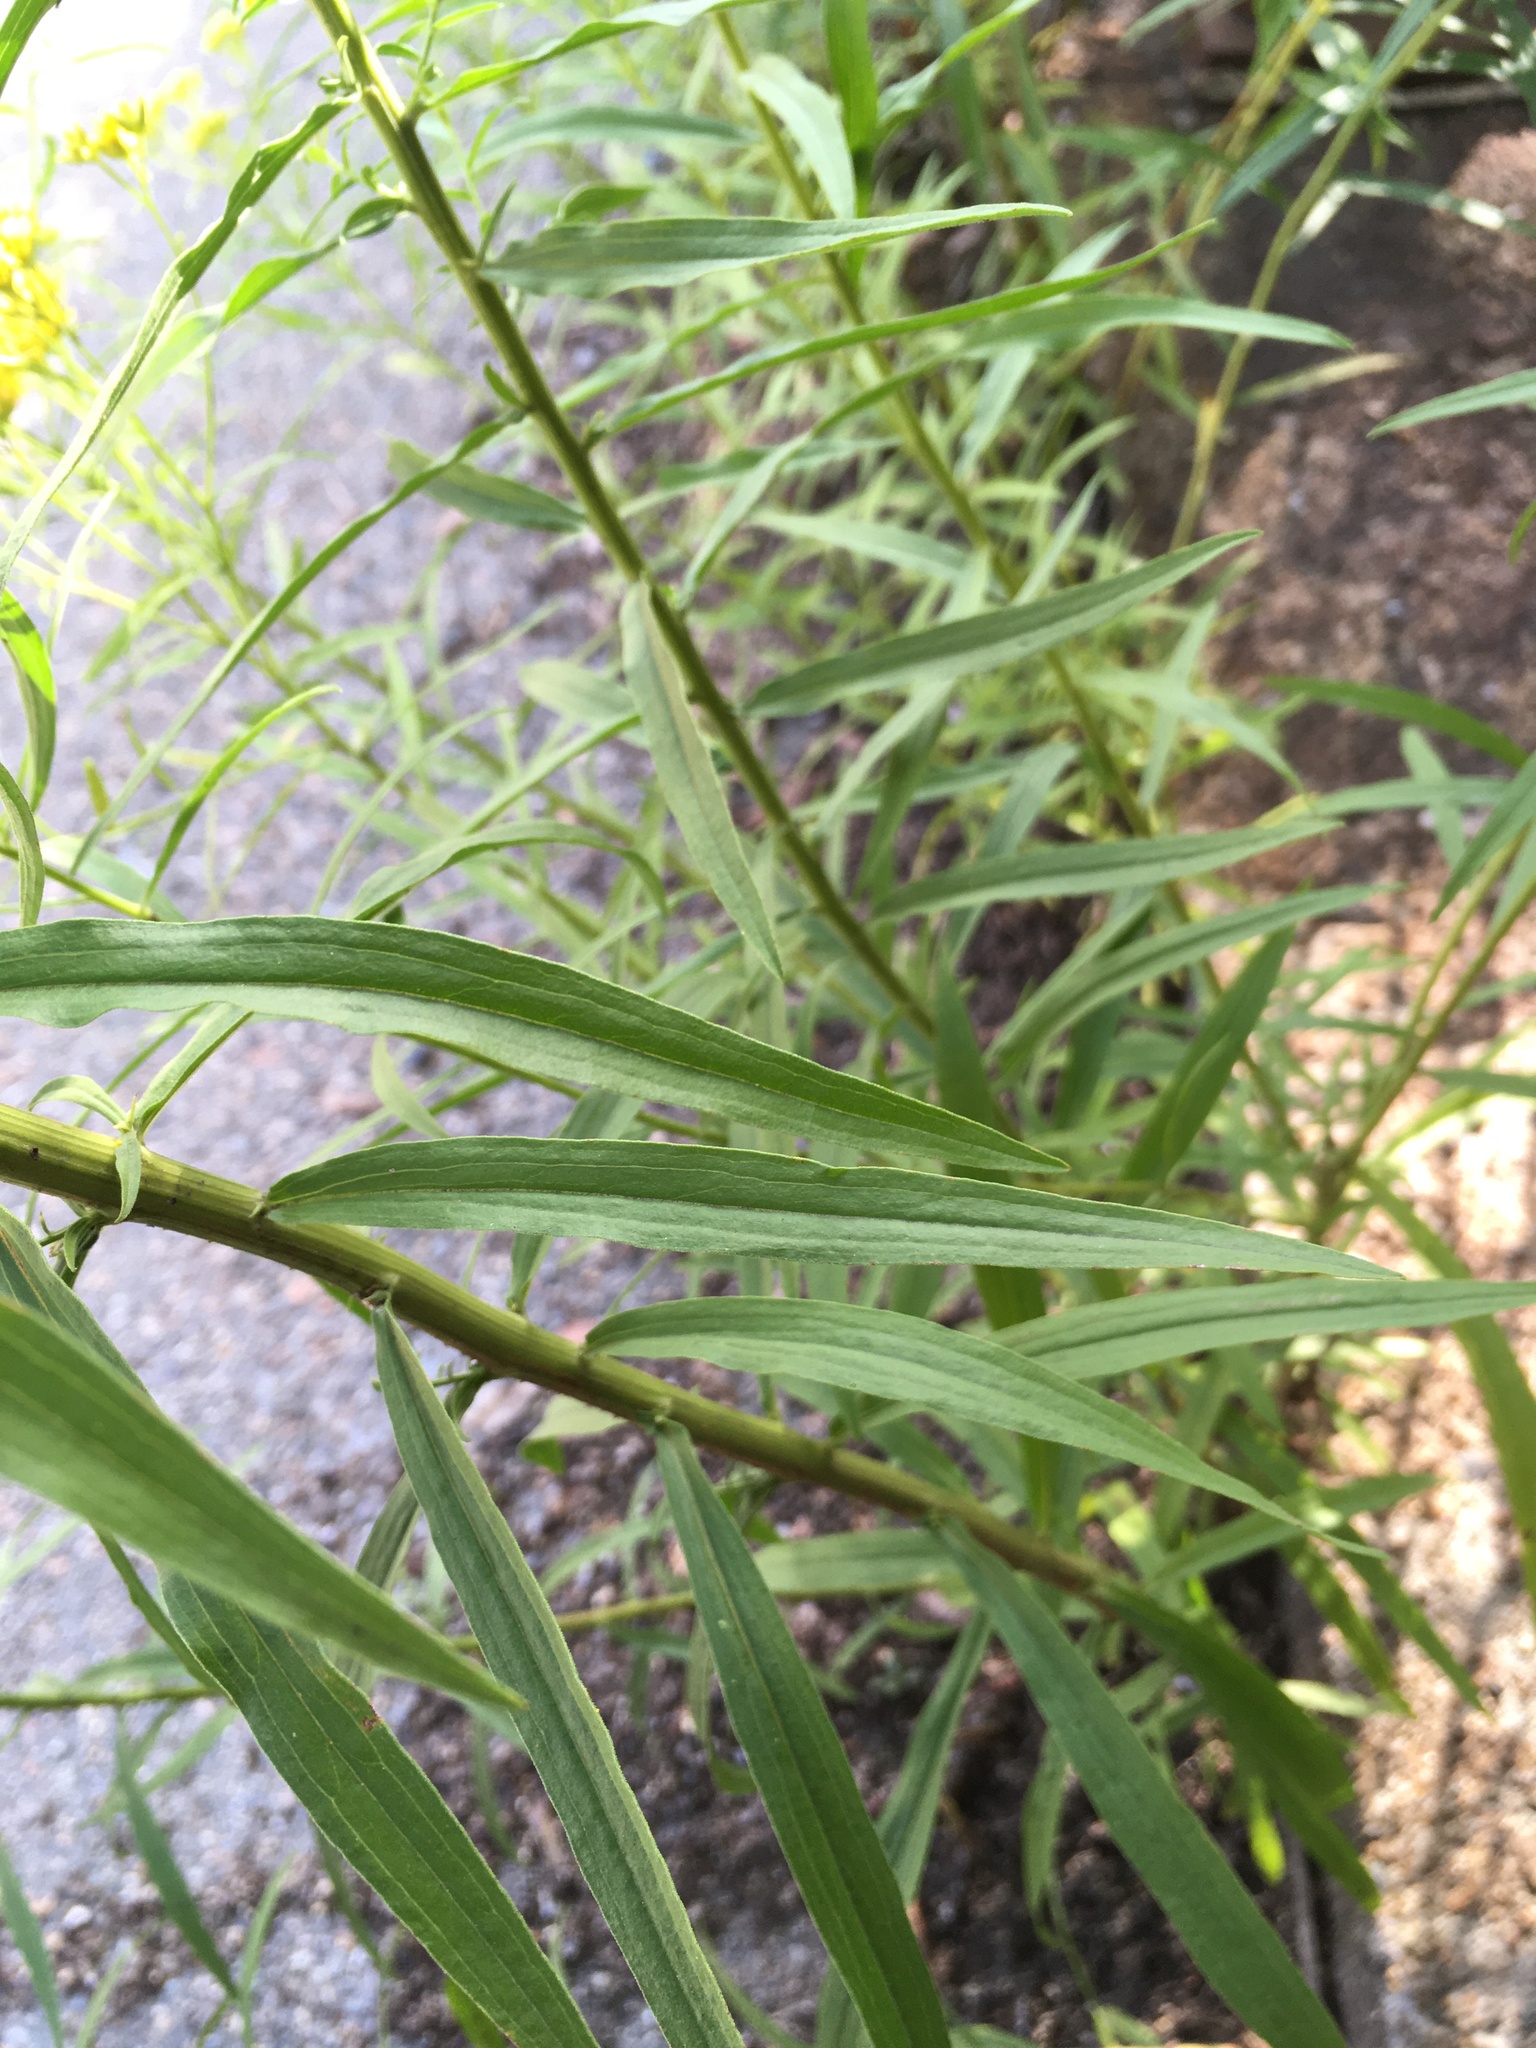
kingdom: Plantae
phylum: Tracheophyta
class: Magnoliopsida
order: Asterales
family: Asteraceae
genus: Euthamia
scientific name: Euthamia graminifolia
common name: Common goldentop
